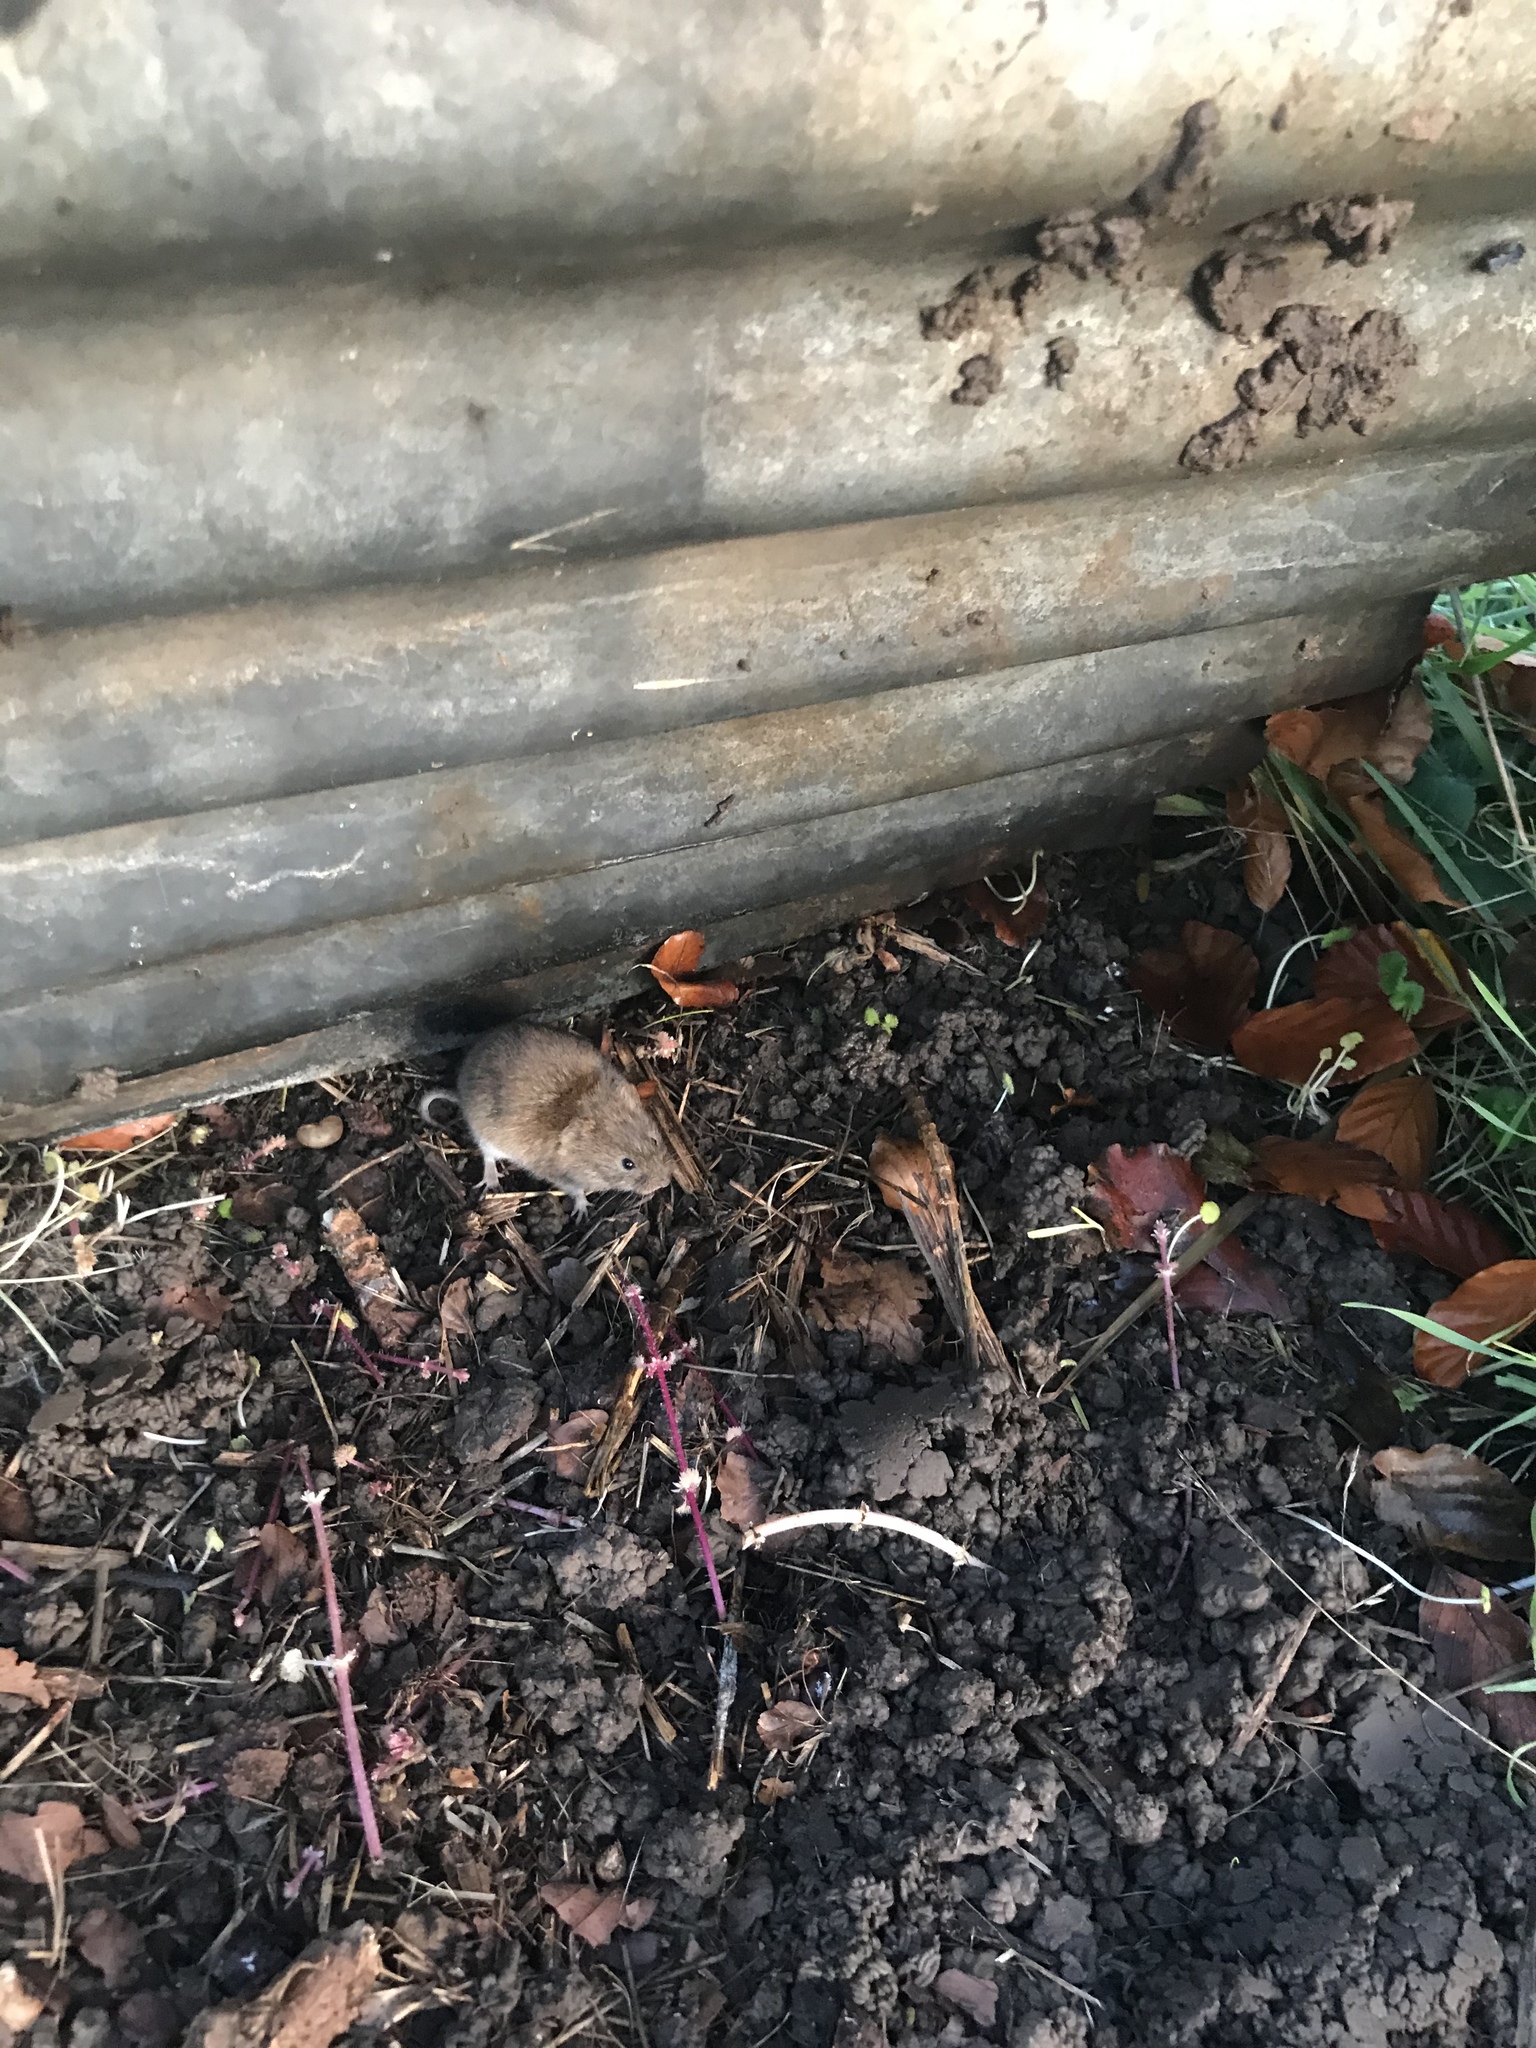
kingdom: Animalia
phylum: Chordata
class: Mammalia
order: Rodentia
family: Cricetidae
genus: Microtus
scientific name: Microtus agrestis
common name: Field vole
